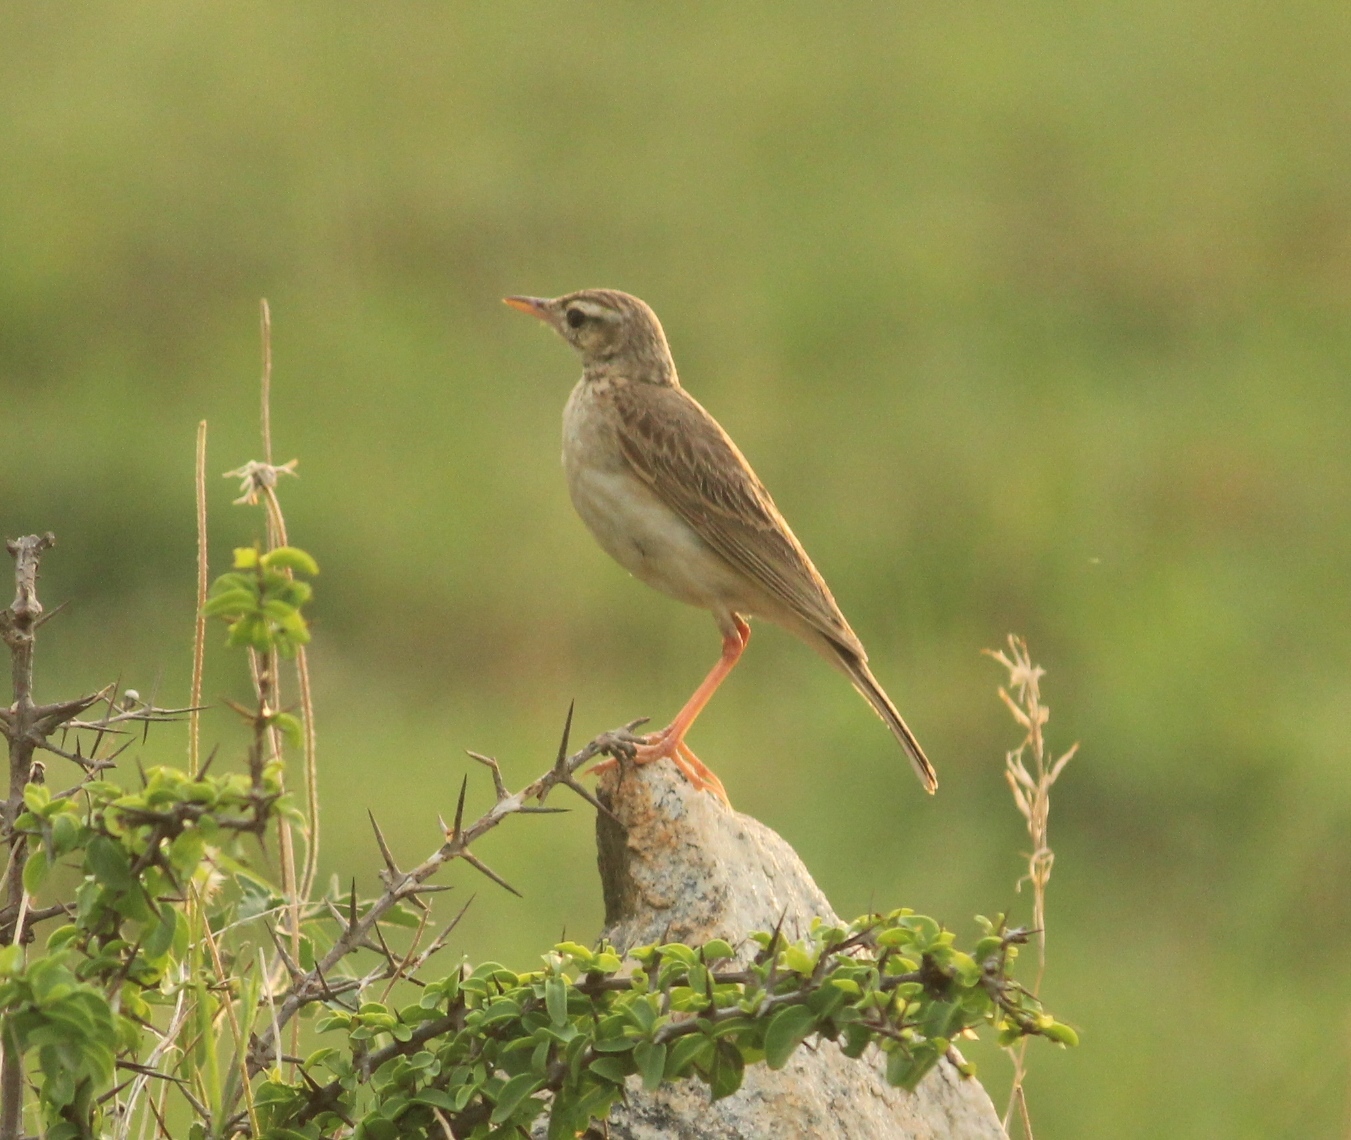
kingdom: Animalia
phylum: Chordata
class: Aves
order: Passeriformes
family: Motacillidae
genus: Anthus
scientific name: Anthus rufulus
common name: Paddyfield pipit
